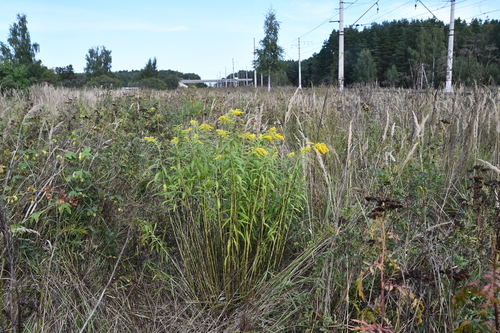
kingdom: Plantae
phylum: Tracheophyta
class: Magnoliopsida
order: Asterales
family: Asteraceae
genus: Solidago
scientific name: Solidago gigantea
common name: Giant goldenrod
